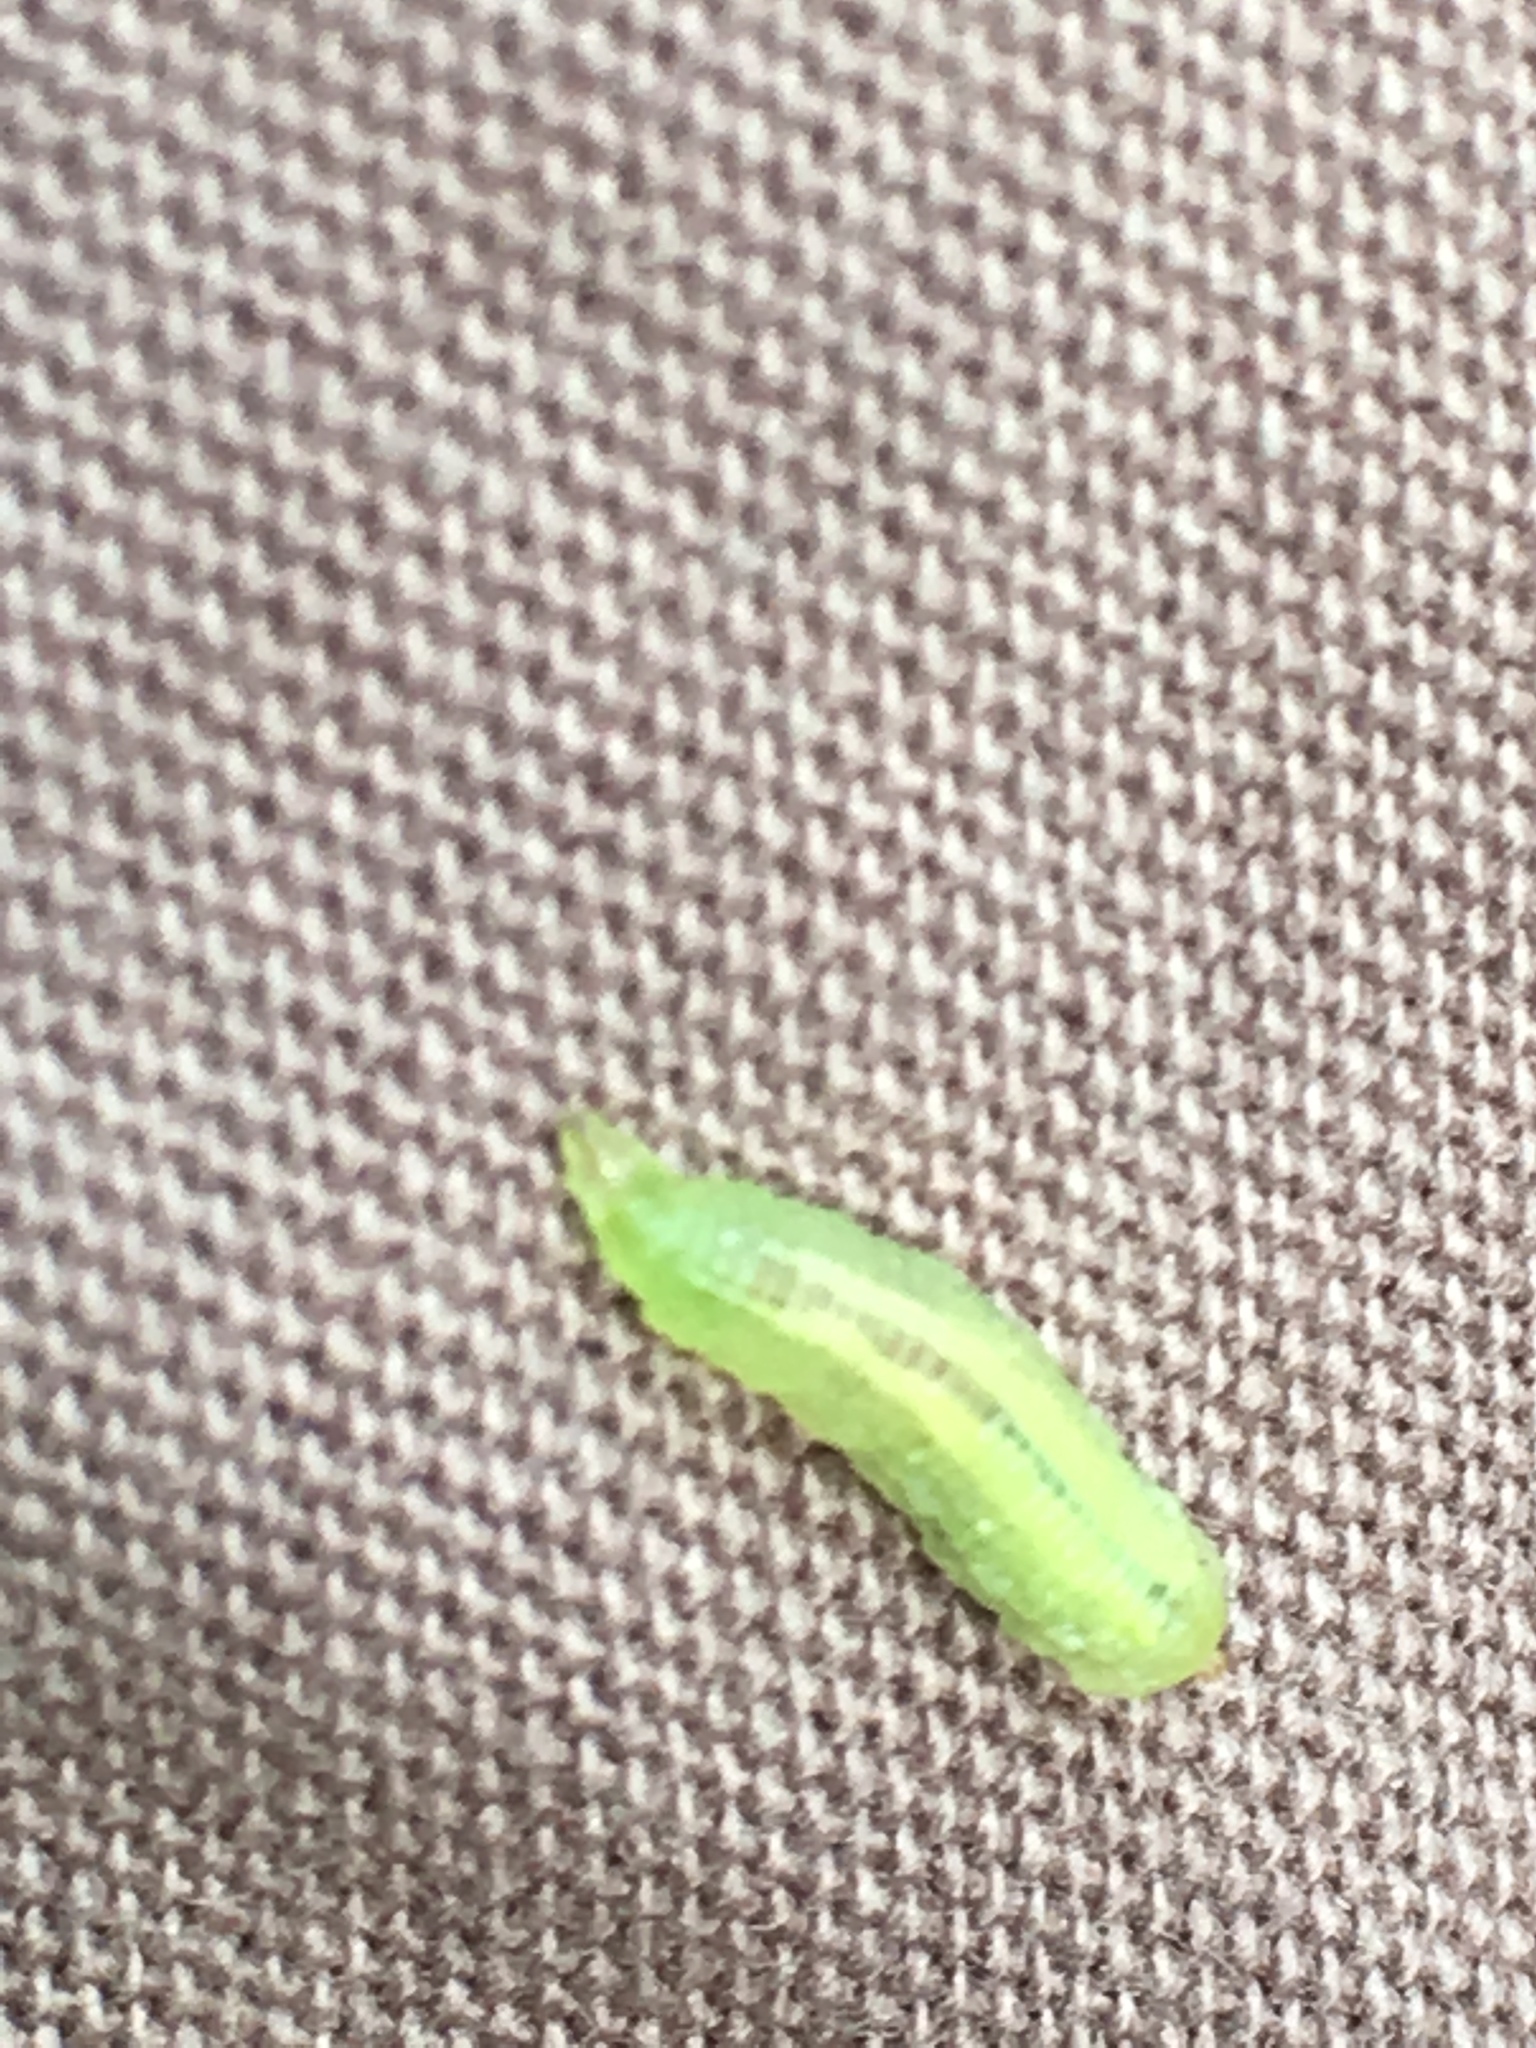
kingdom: Animalia
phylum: Arthropoda
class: Insecta
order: Diptera
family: Syrphidae
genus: Sphaerophoria
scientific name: Sphaerophoria
